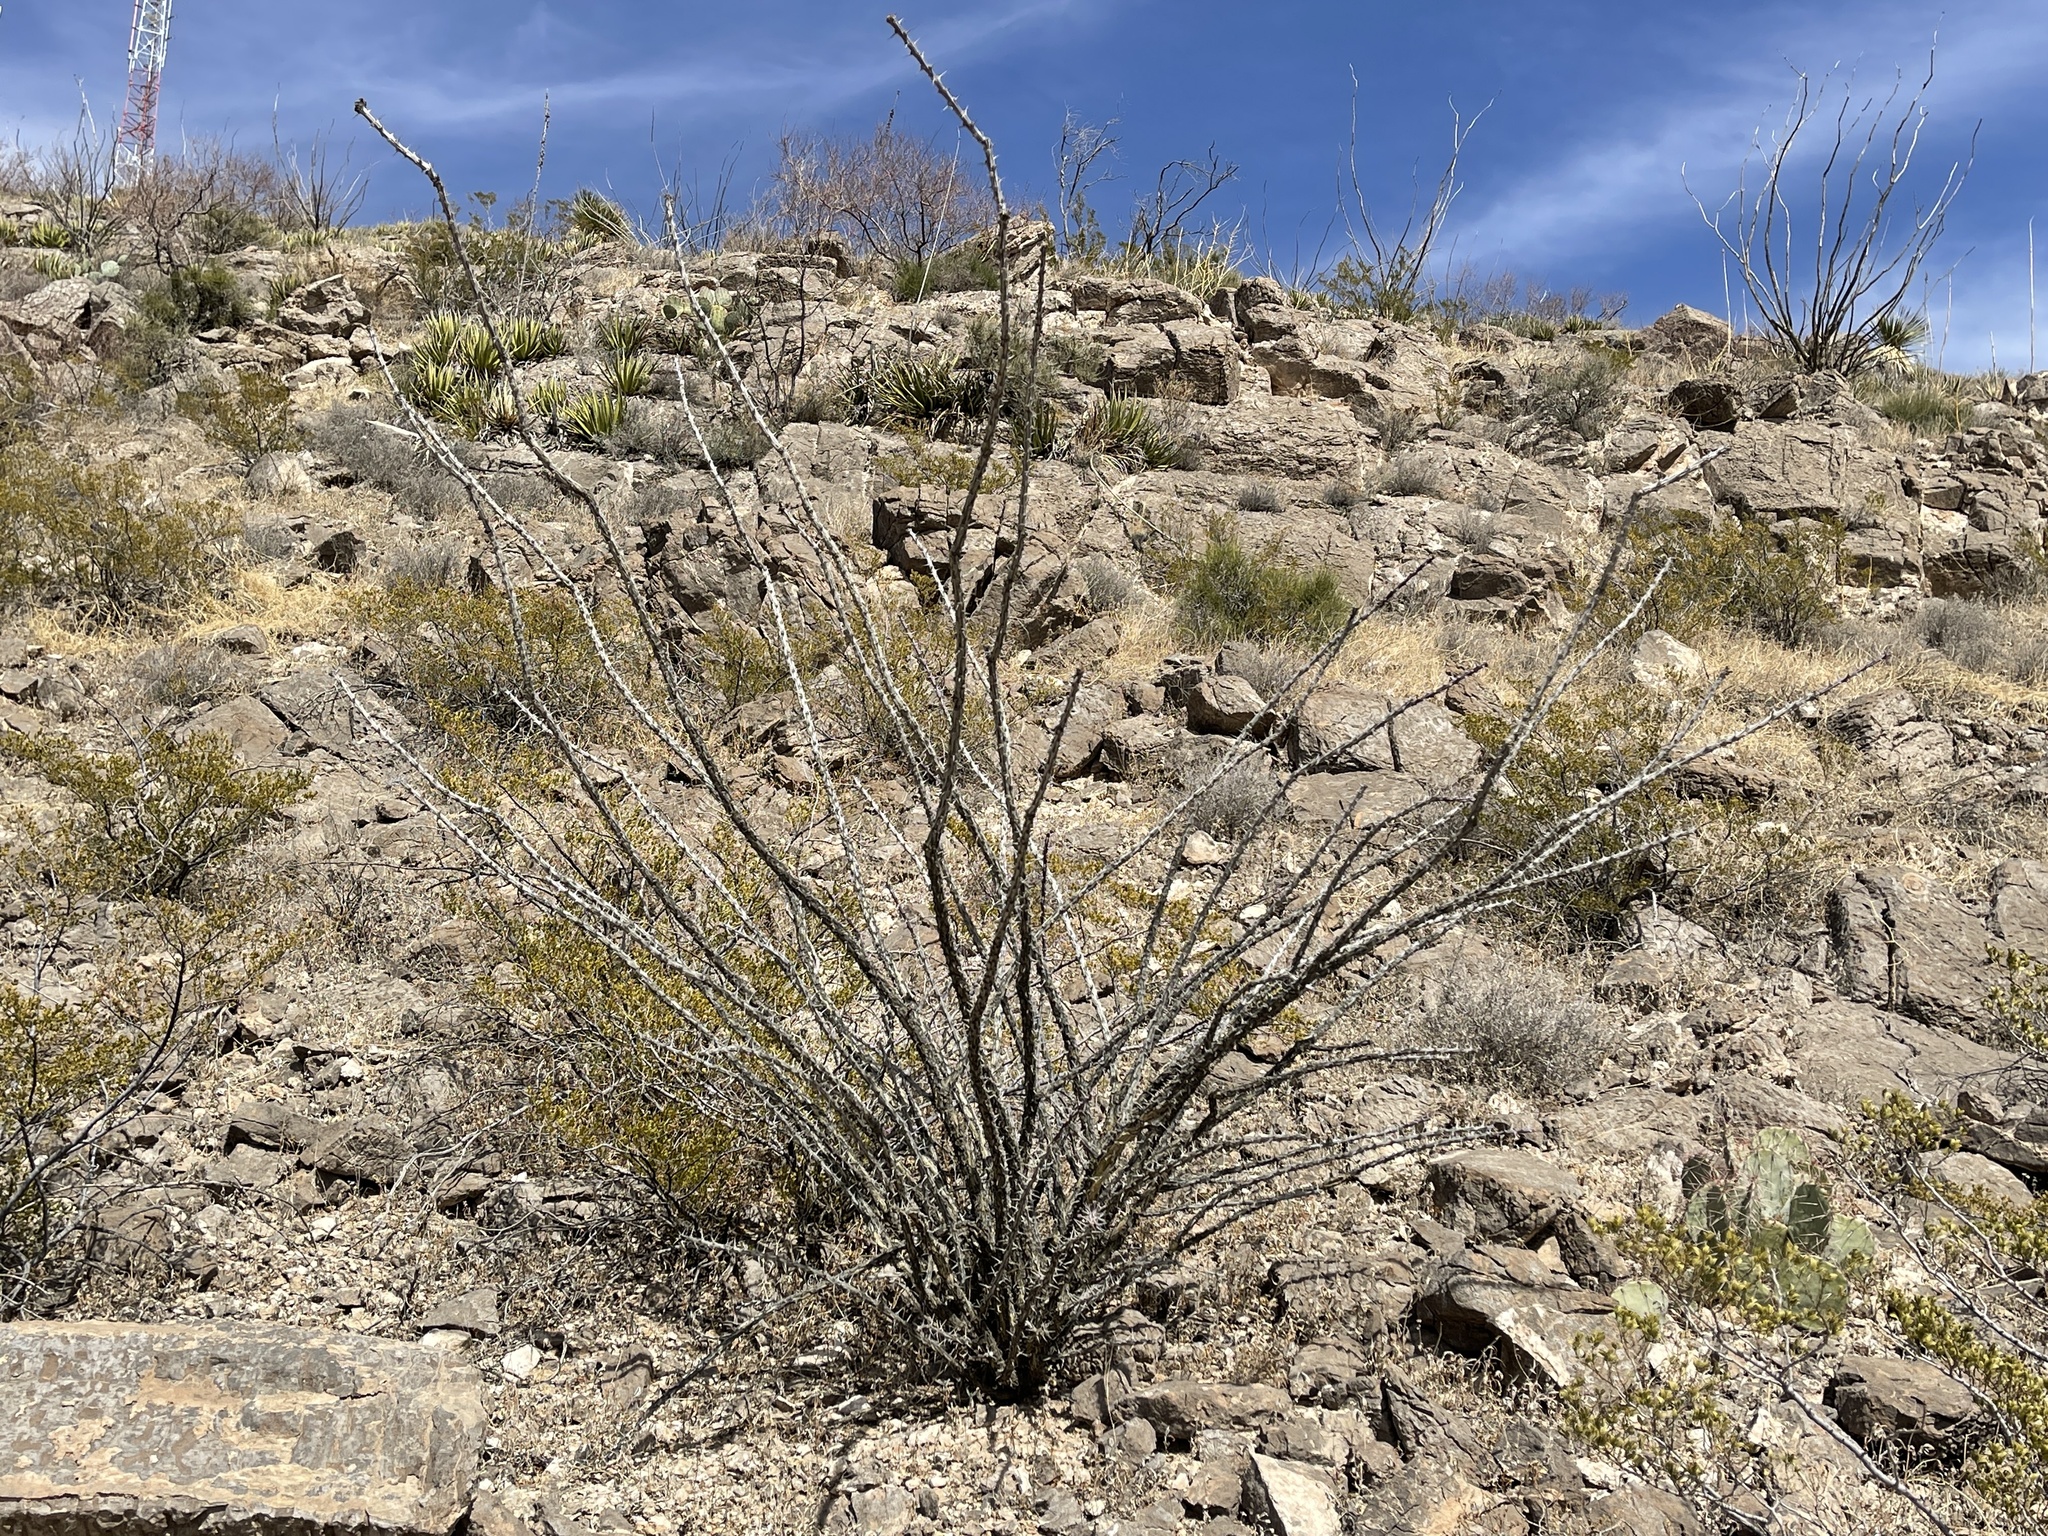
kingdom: Plantae
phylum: Tracheophyta
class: Magnoliopsida
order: Ericales
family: Fouquieriaceae
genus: Fouquieria
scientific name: Fouquieria splendens
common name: Vine-cactus
